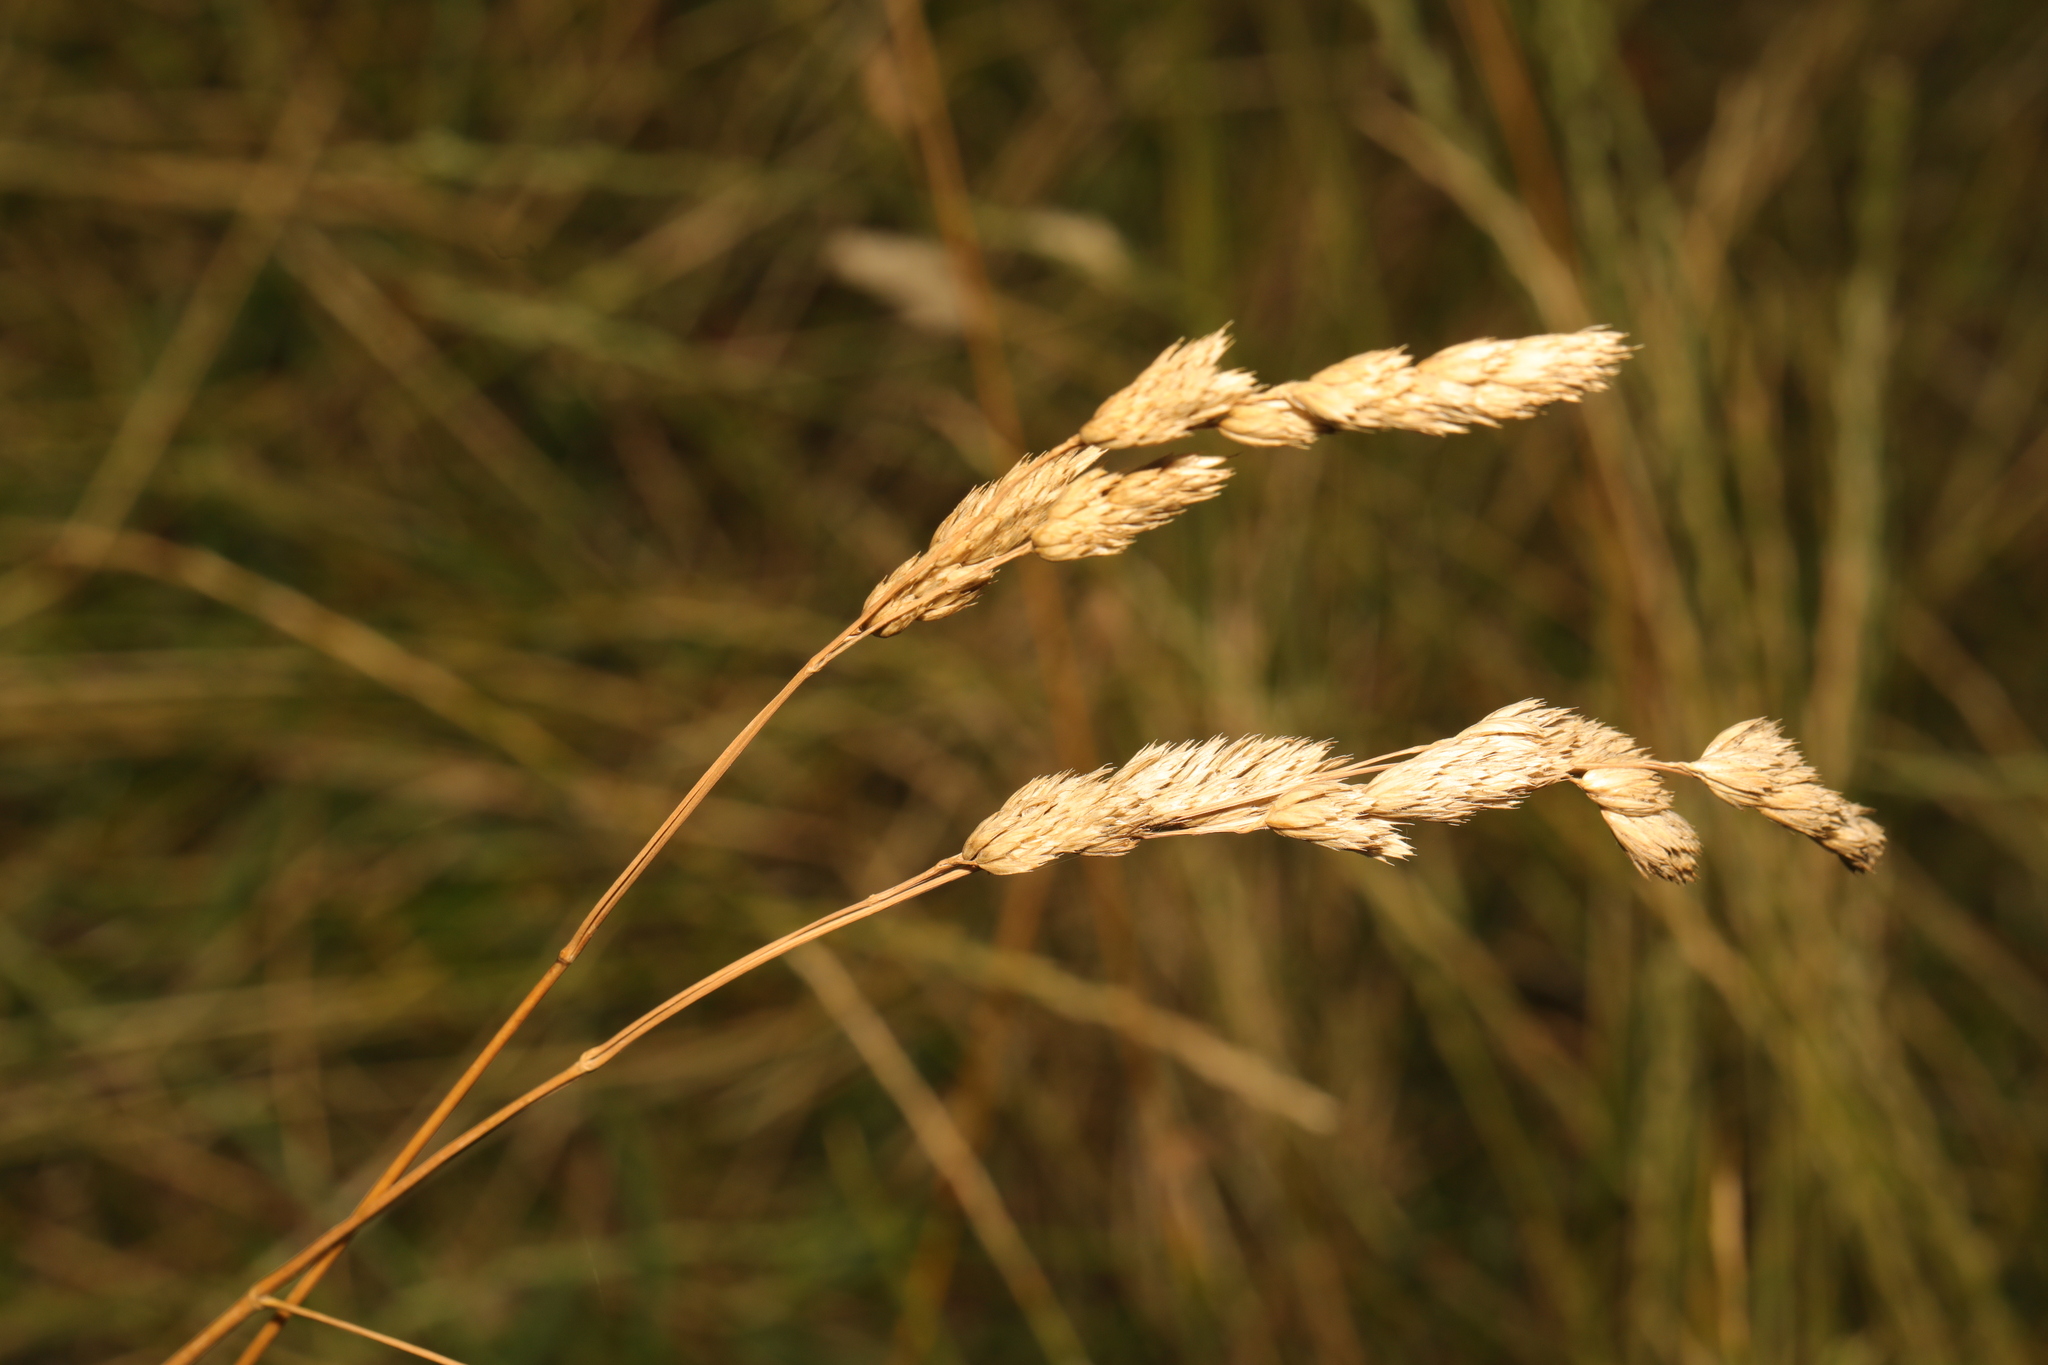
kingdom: Plantae
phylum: Tracheophyta
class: Liliopsida
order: Poales
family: Poaceae
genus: Dactylis
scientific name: Dactylis glomerata
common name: Orchardgrass
